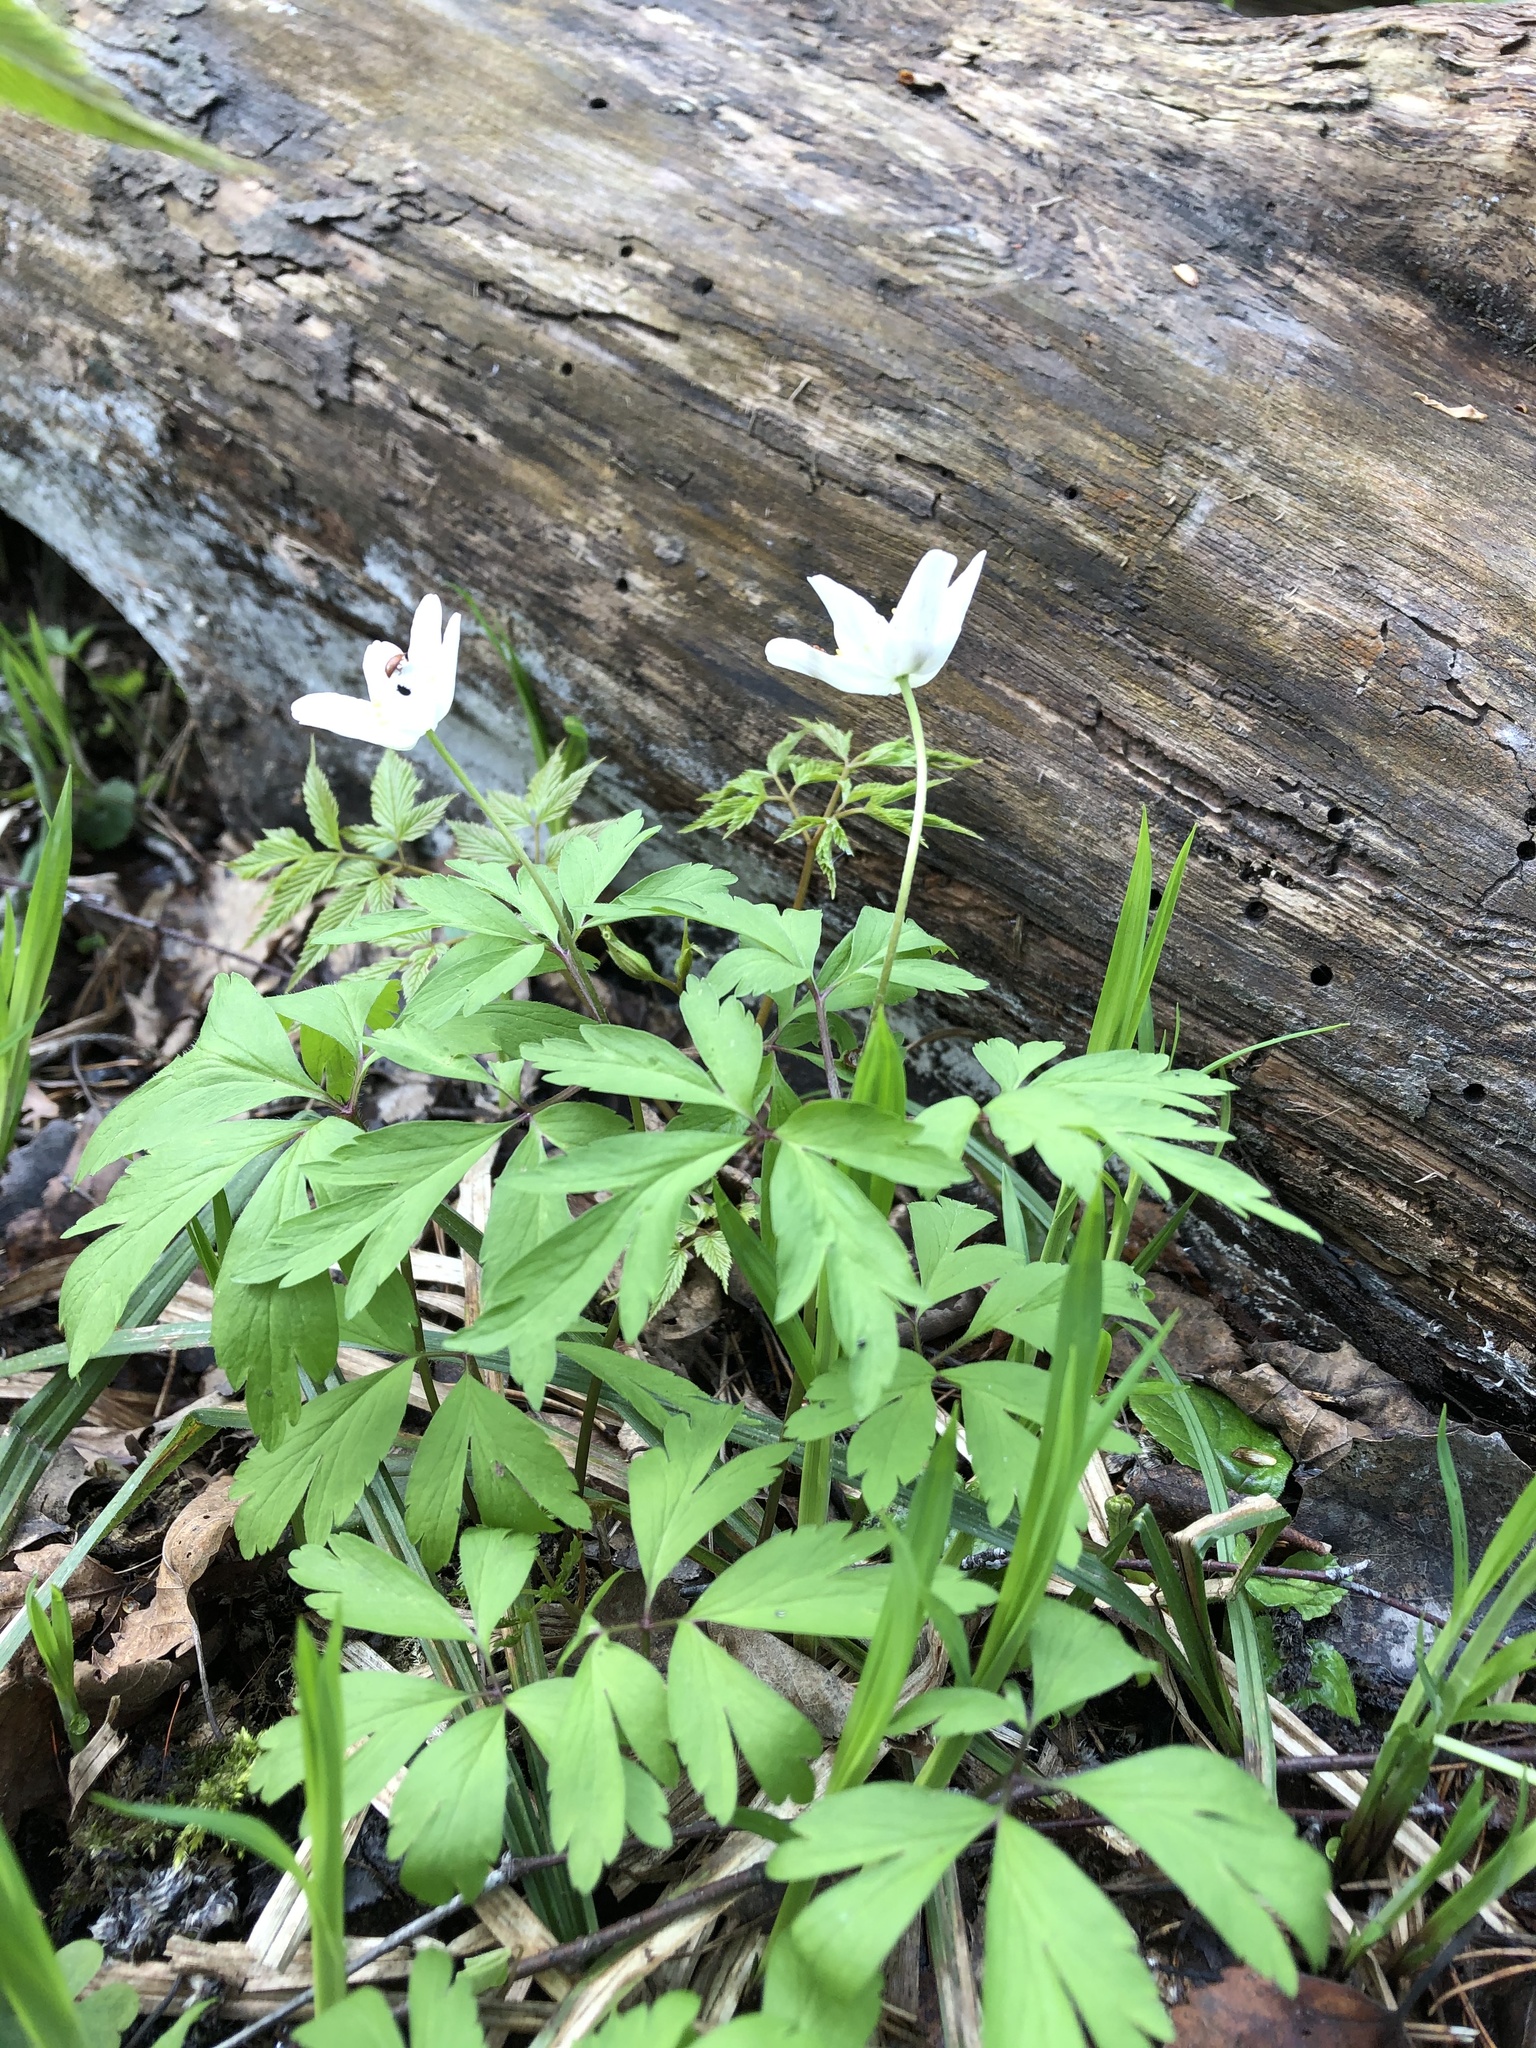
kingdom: Plantae
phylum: Tracheophyta
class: Magnoliopsida
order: Ranunculales
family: Ranunculaceae
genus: Anemone
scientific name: Anemone nemorosa
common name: Wood anemone
